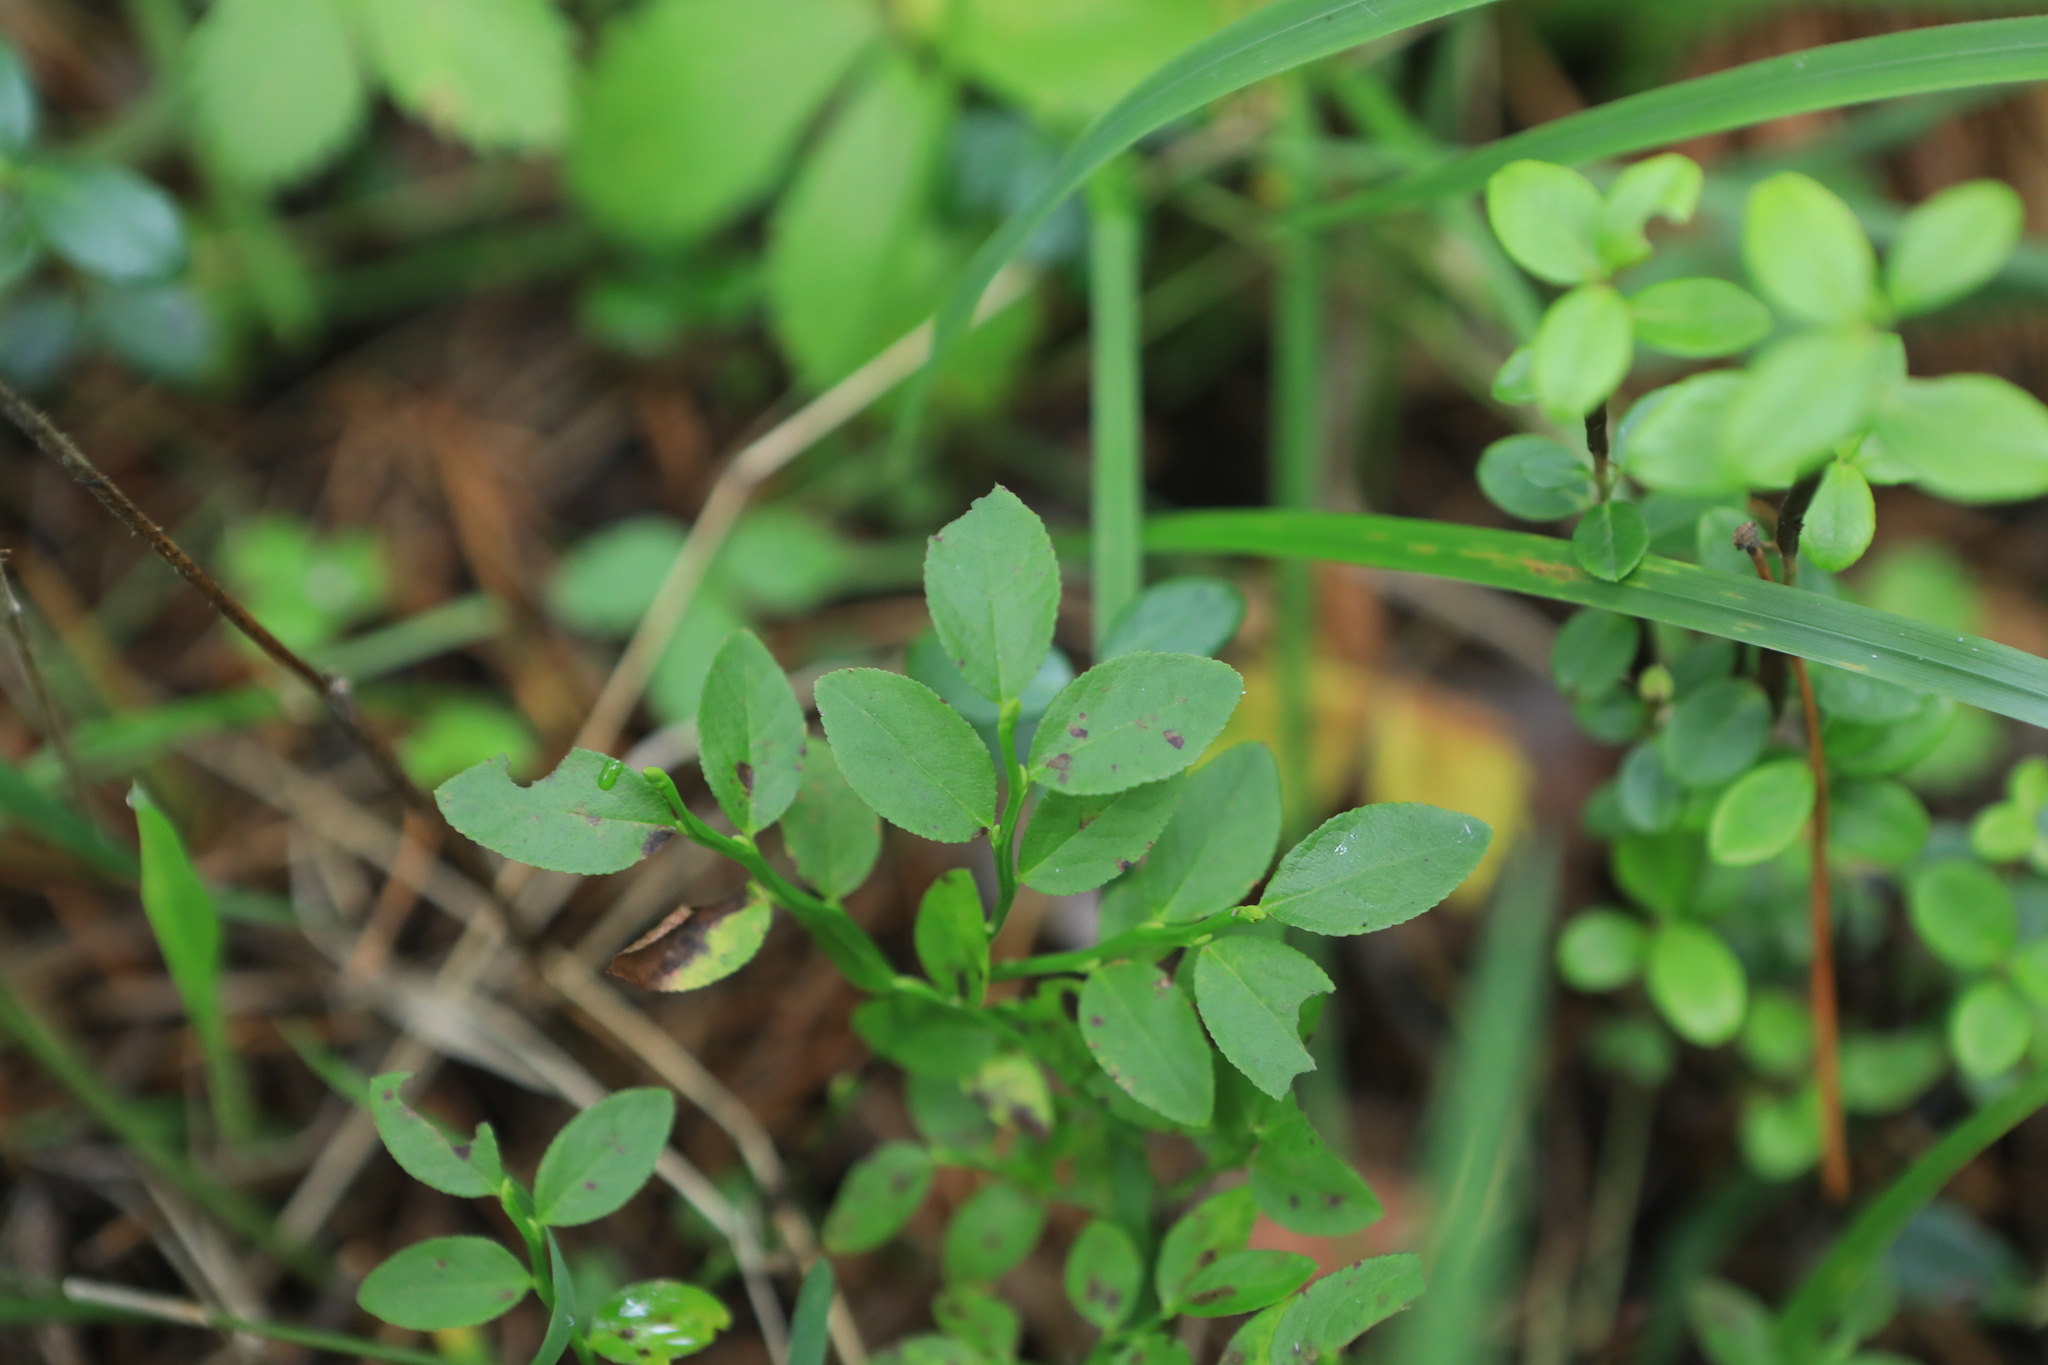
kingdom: Plantae
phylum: Tracheophyta
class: Magnoliopsida
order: Ericales
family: Ericaceae
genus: Vaccinium
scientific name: Vaccinium myrtillus
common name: Bilberry
